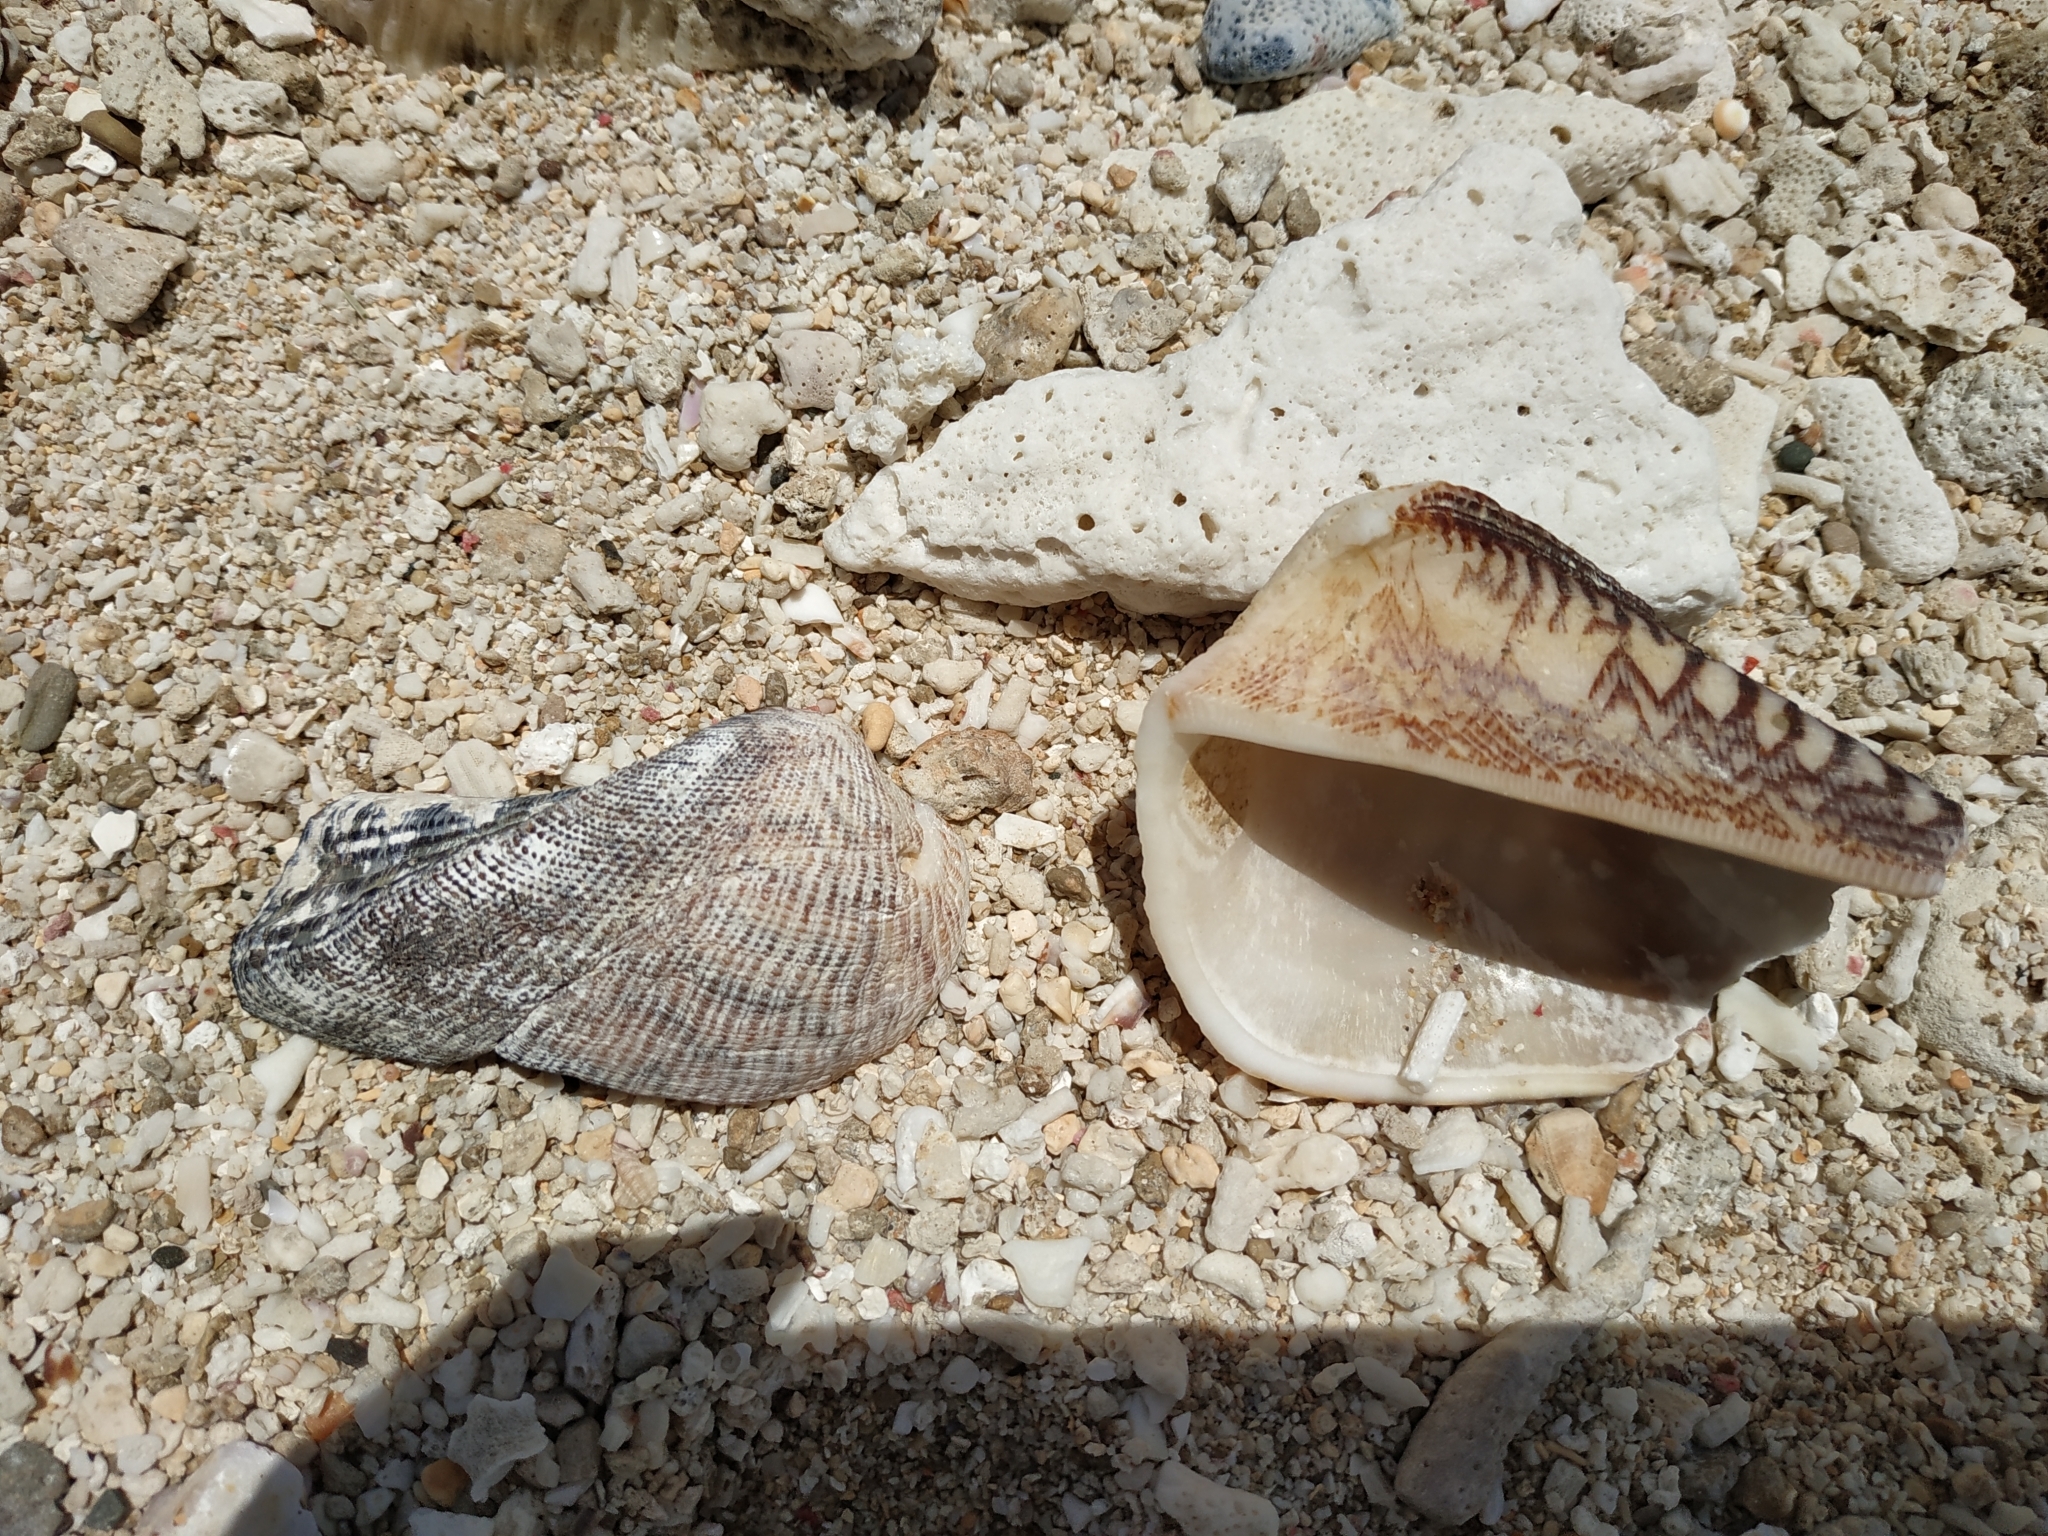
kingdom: Animalia
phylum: Mollusca
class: Bivalvia
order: Arcida
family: Arcidae
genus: Lamarcka
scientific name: Lamarcka ventricosa
